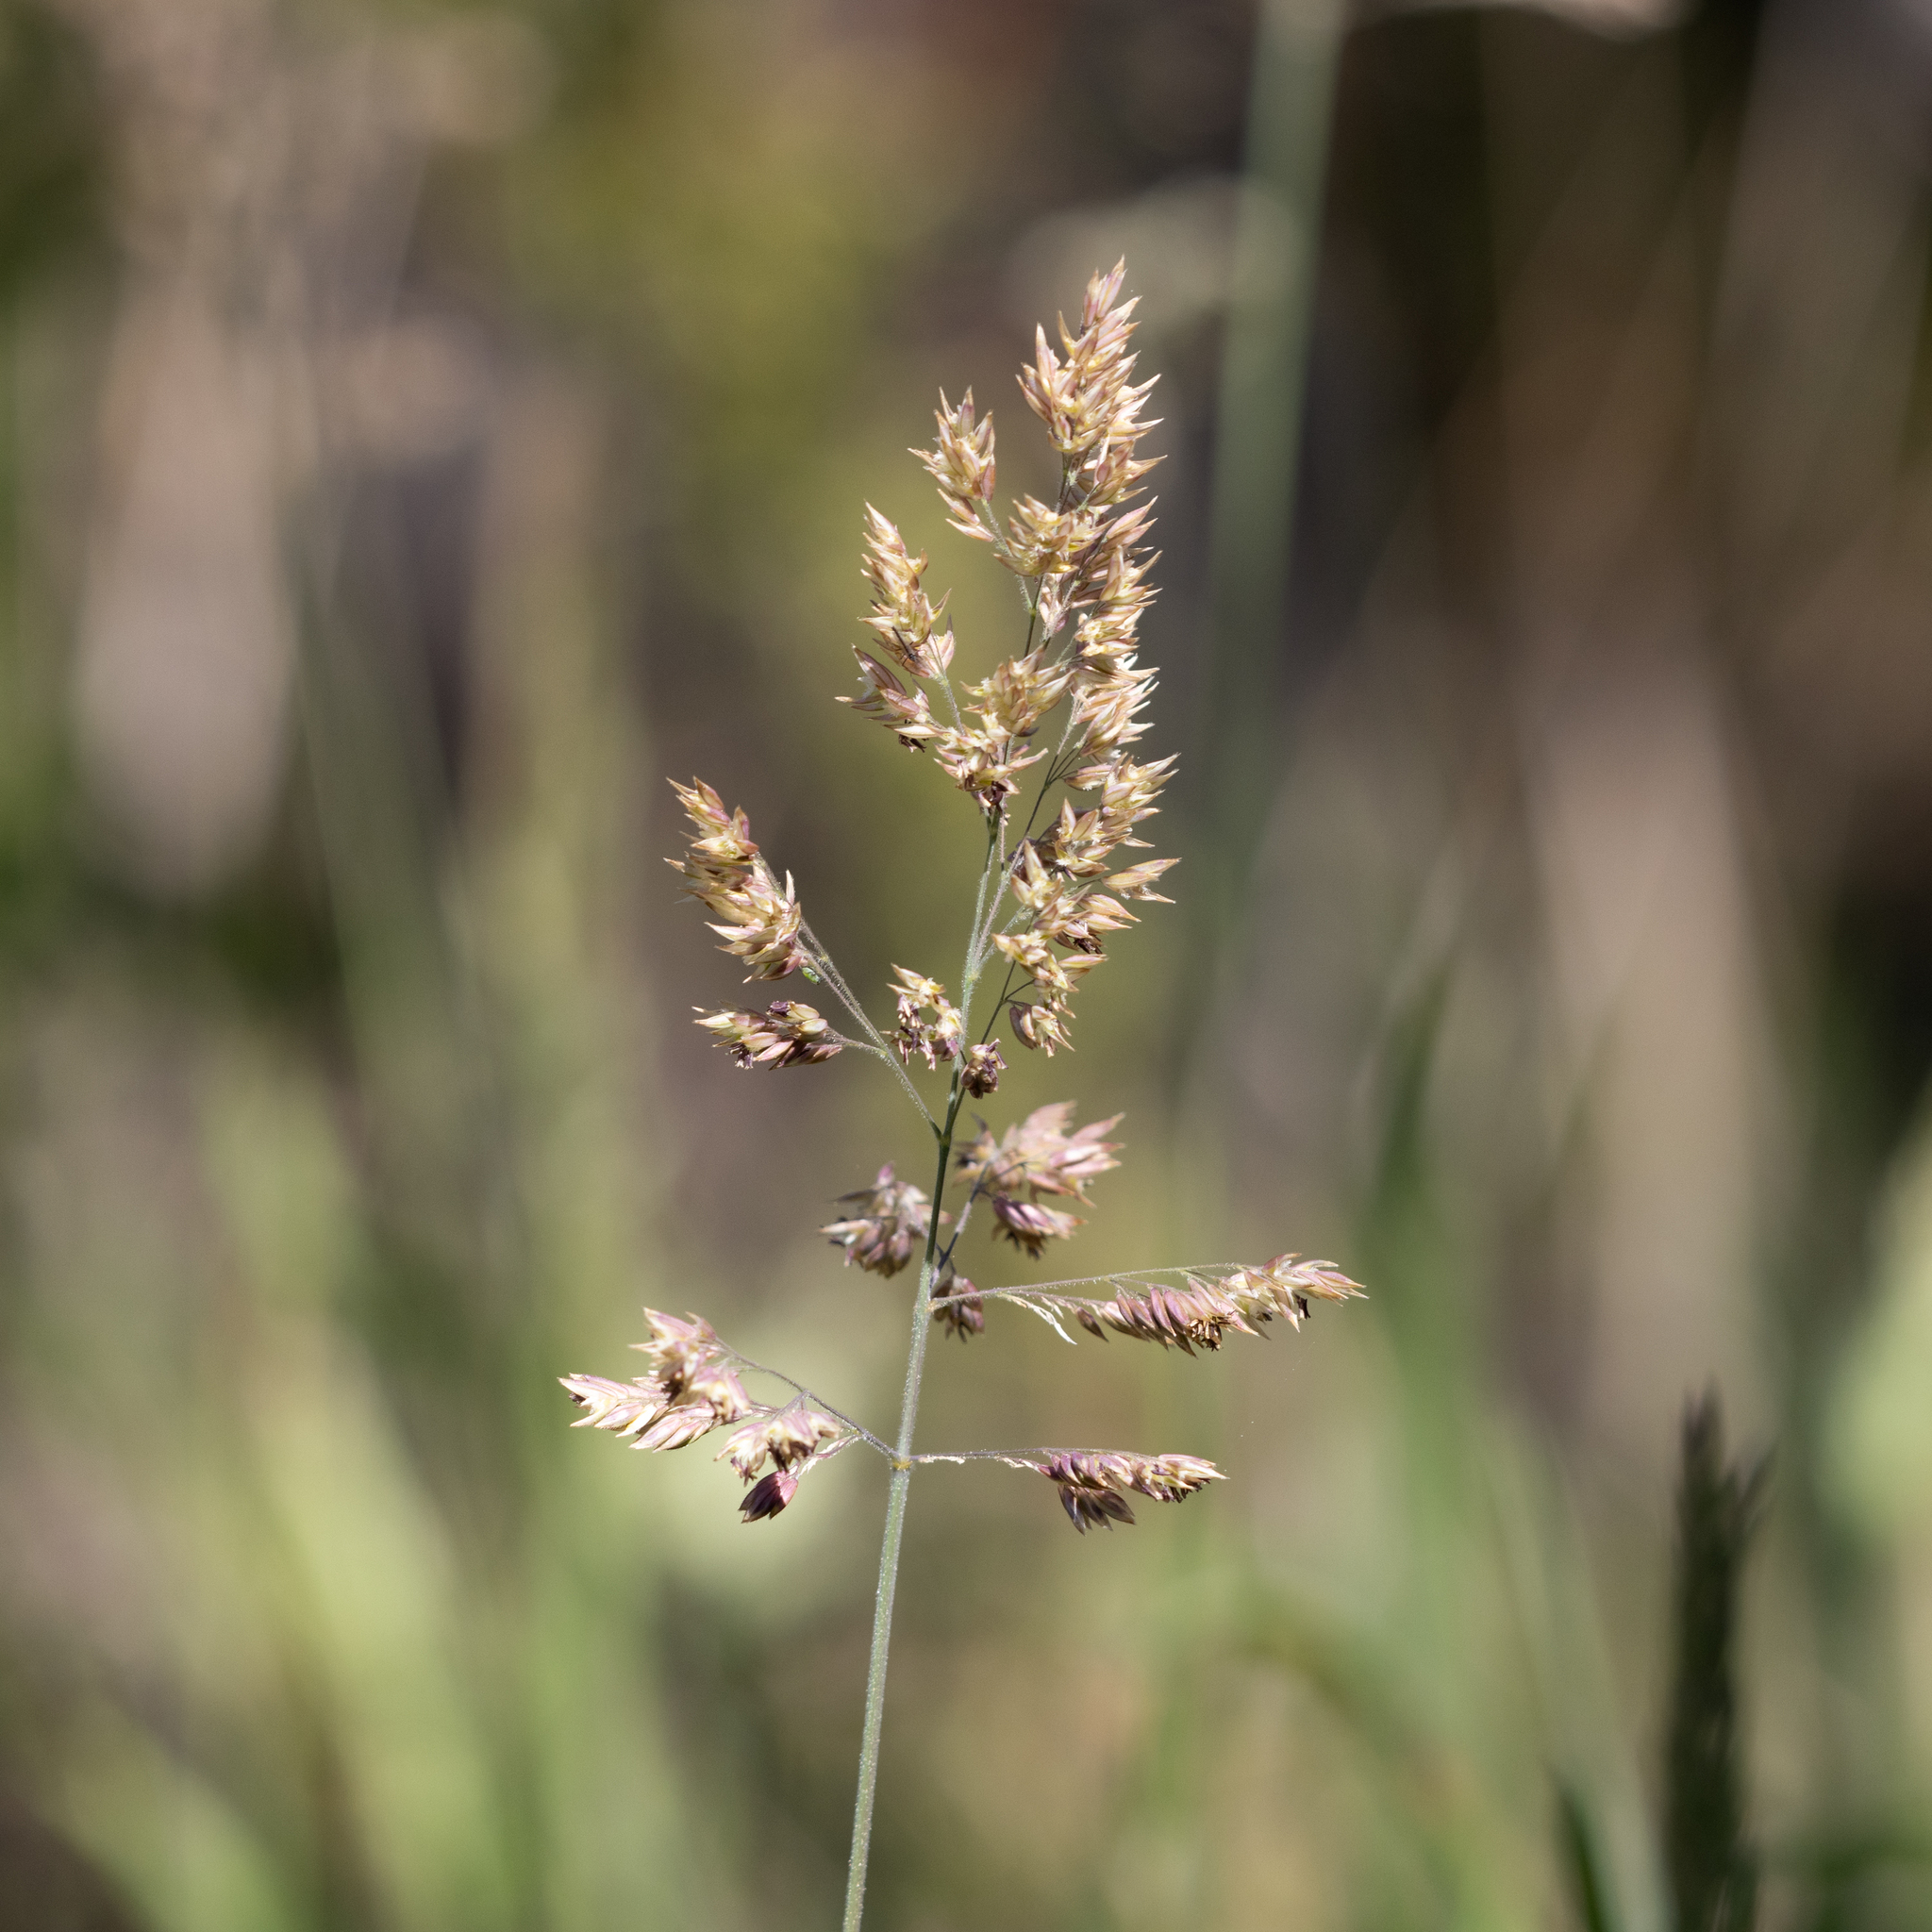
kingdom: Plantae
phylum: Tracheophyta
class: Liliopsida
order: Poales
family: Poaceae
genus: Holcus
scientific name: Holcus lanatus
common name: Yorkshire-fog
